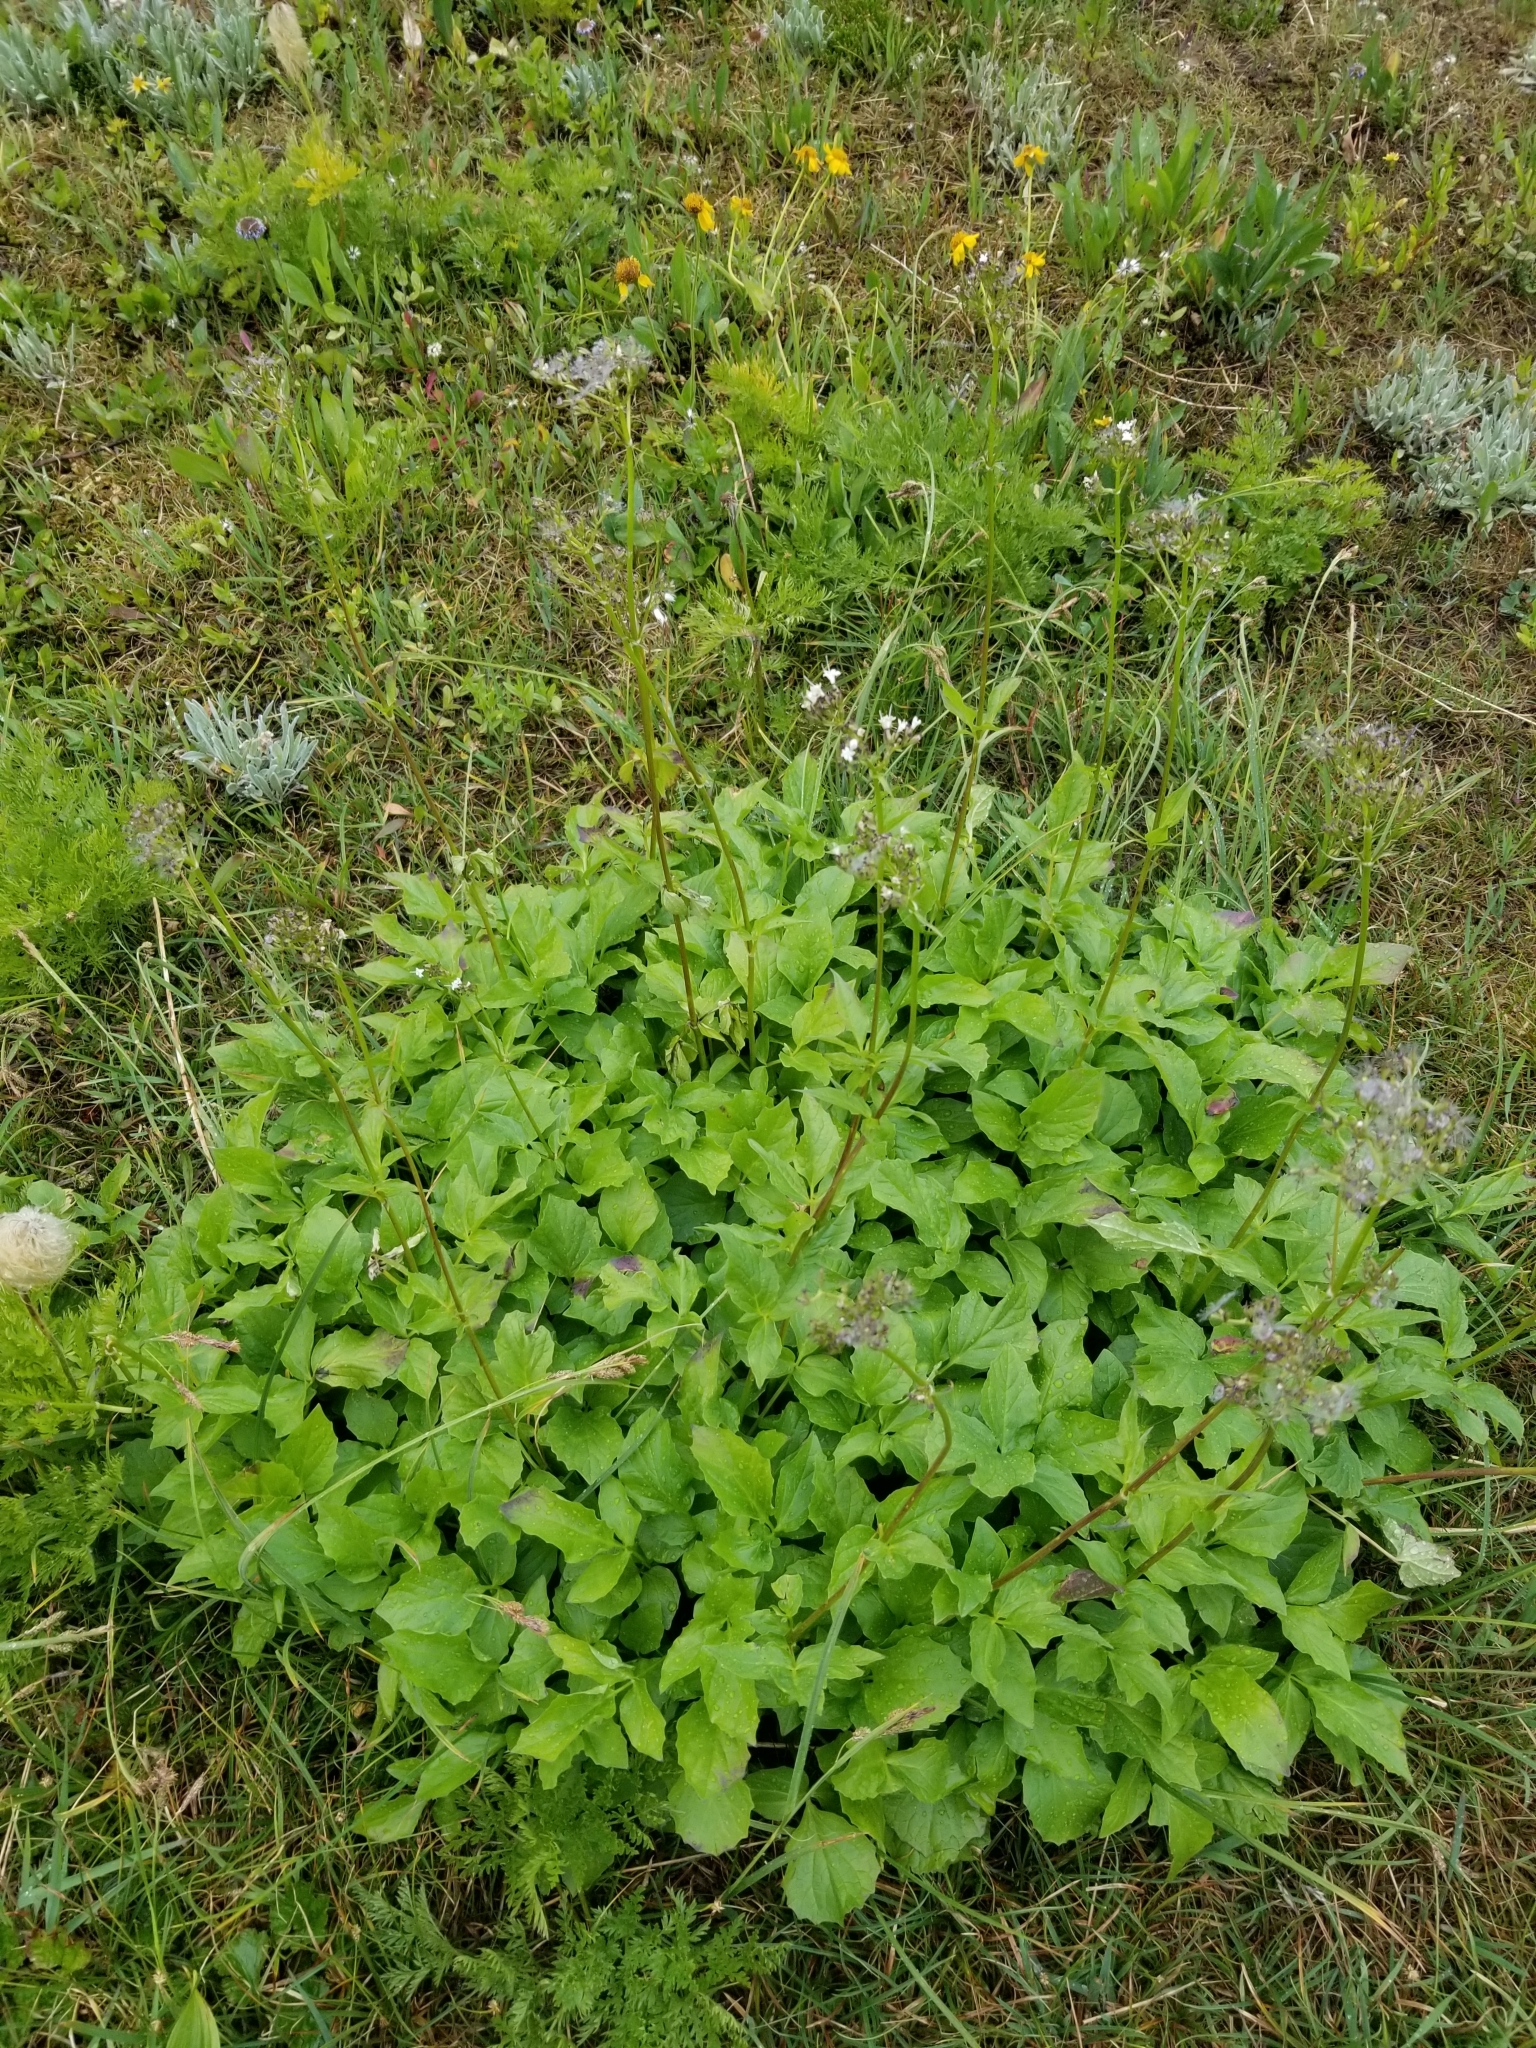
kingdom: Plantae
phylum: Tracheophyta
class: Magnoliopsida
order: Dipsacales
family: Caprifoliaceae
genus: Valeriana
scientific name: Valeriana sitchensis
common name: Pacific valerian
